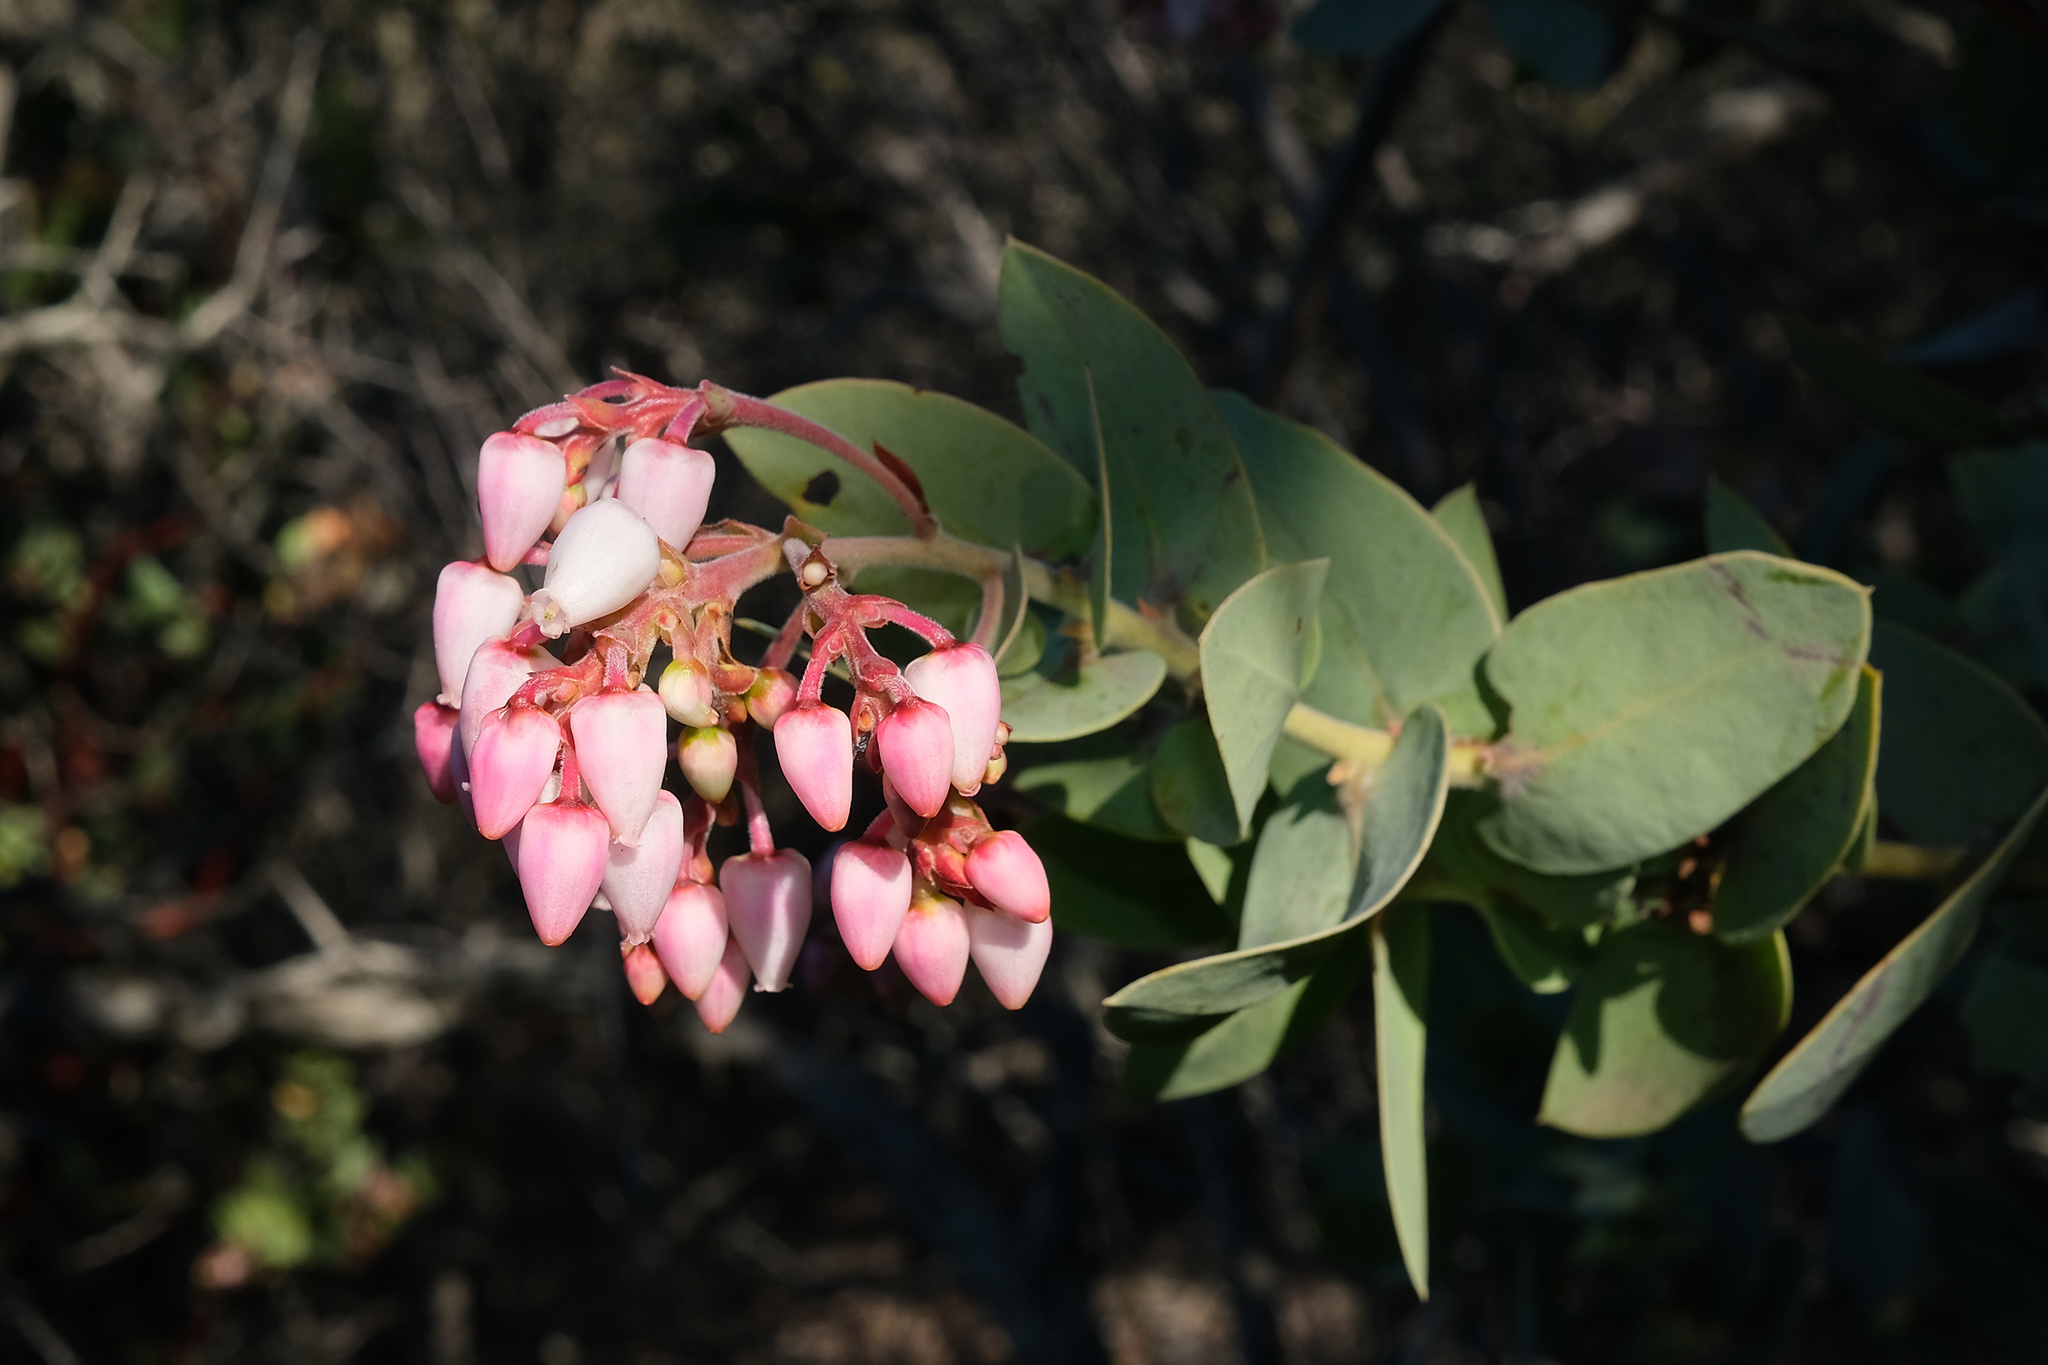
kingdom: Plantae
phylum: Tracheophyta
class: Magnoliopsida
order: Ericales
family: Ericaceae
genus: Arctostaphylos
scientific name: Arctostaphylos gabilanensis
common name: Gabilan manzanita
